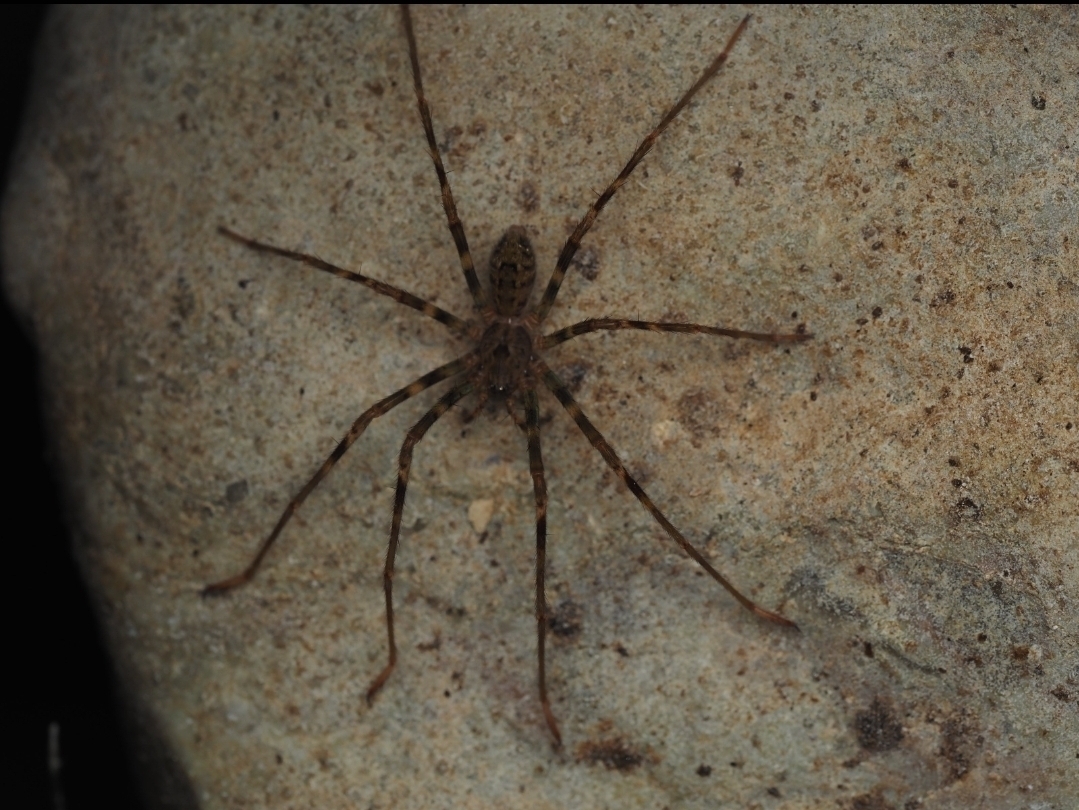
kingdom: Animalia
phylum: Arthropoda
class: Arachnida
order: Araneae
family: Gradungulidae
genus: Spelungula
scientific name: Spelungula cavernicola
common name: Nelson cave spider
